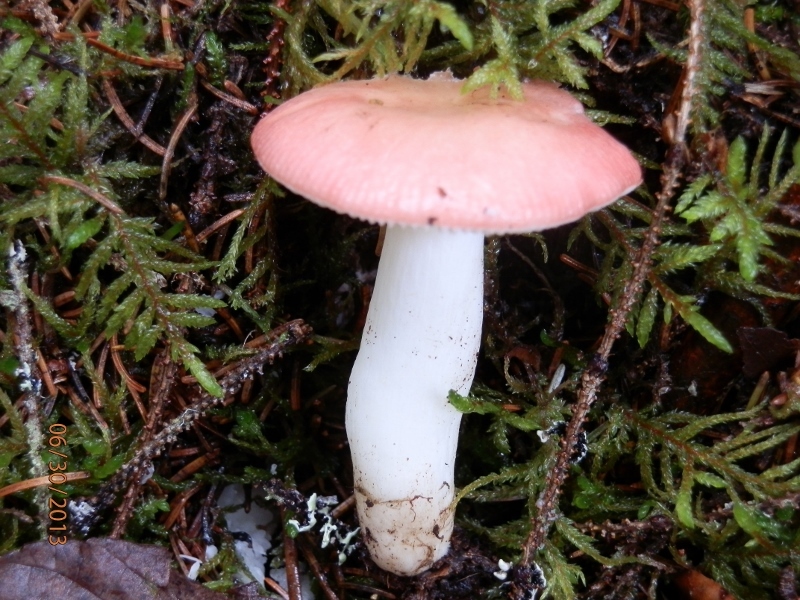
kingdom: Fungi
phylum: Basidiomycota
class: Agaricomycetes
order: Russulales
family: Russulaceae
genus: Russula
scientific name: Russula silvicola
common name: Emetic russula
